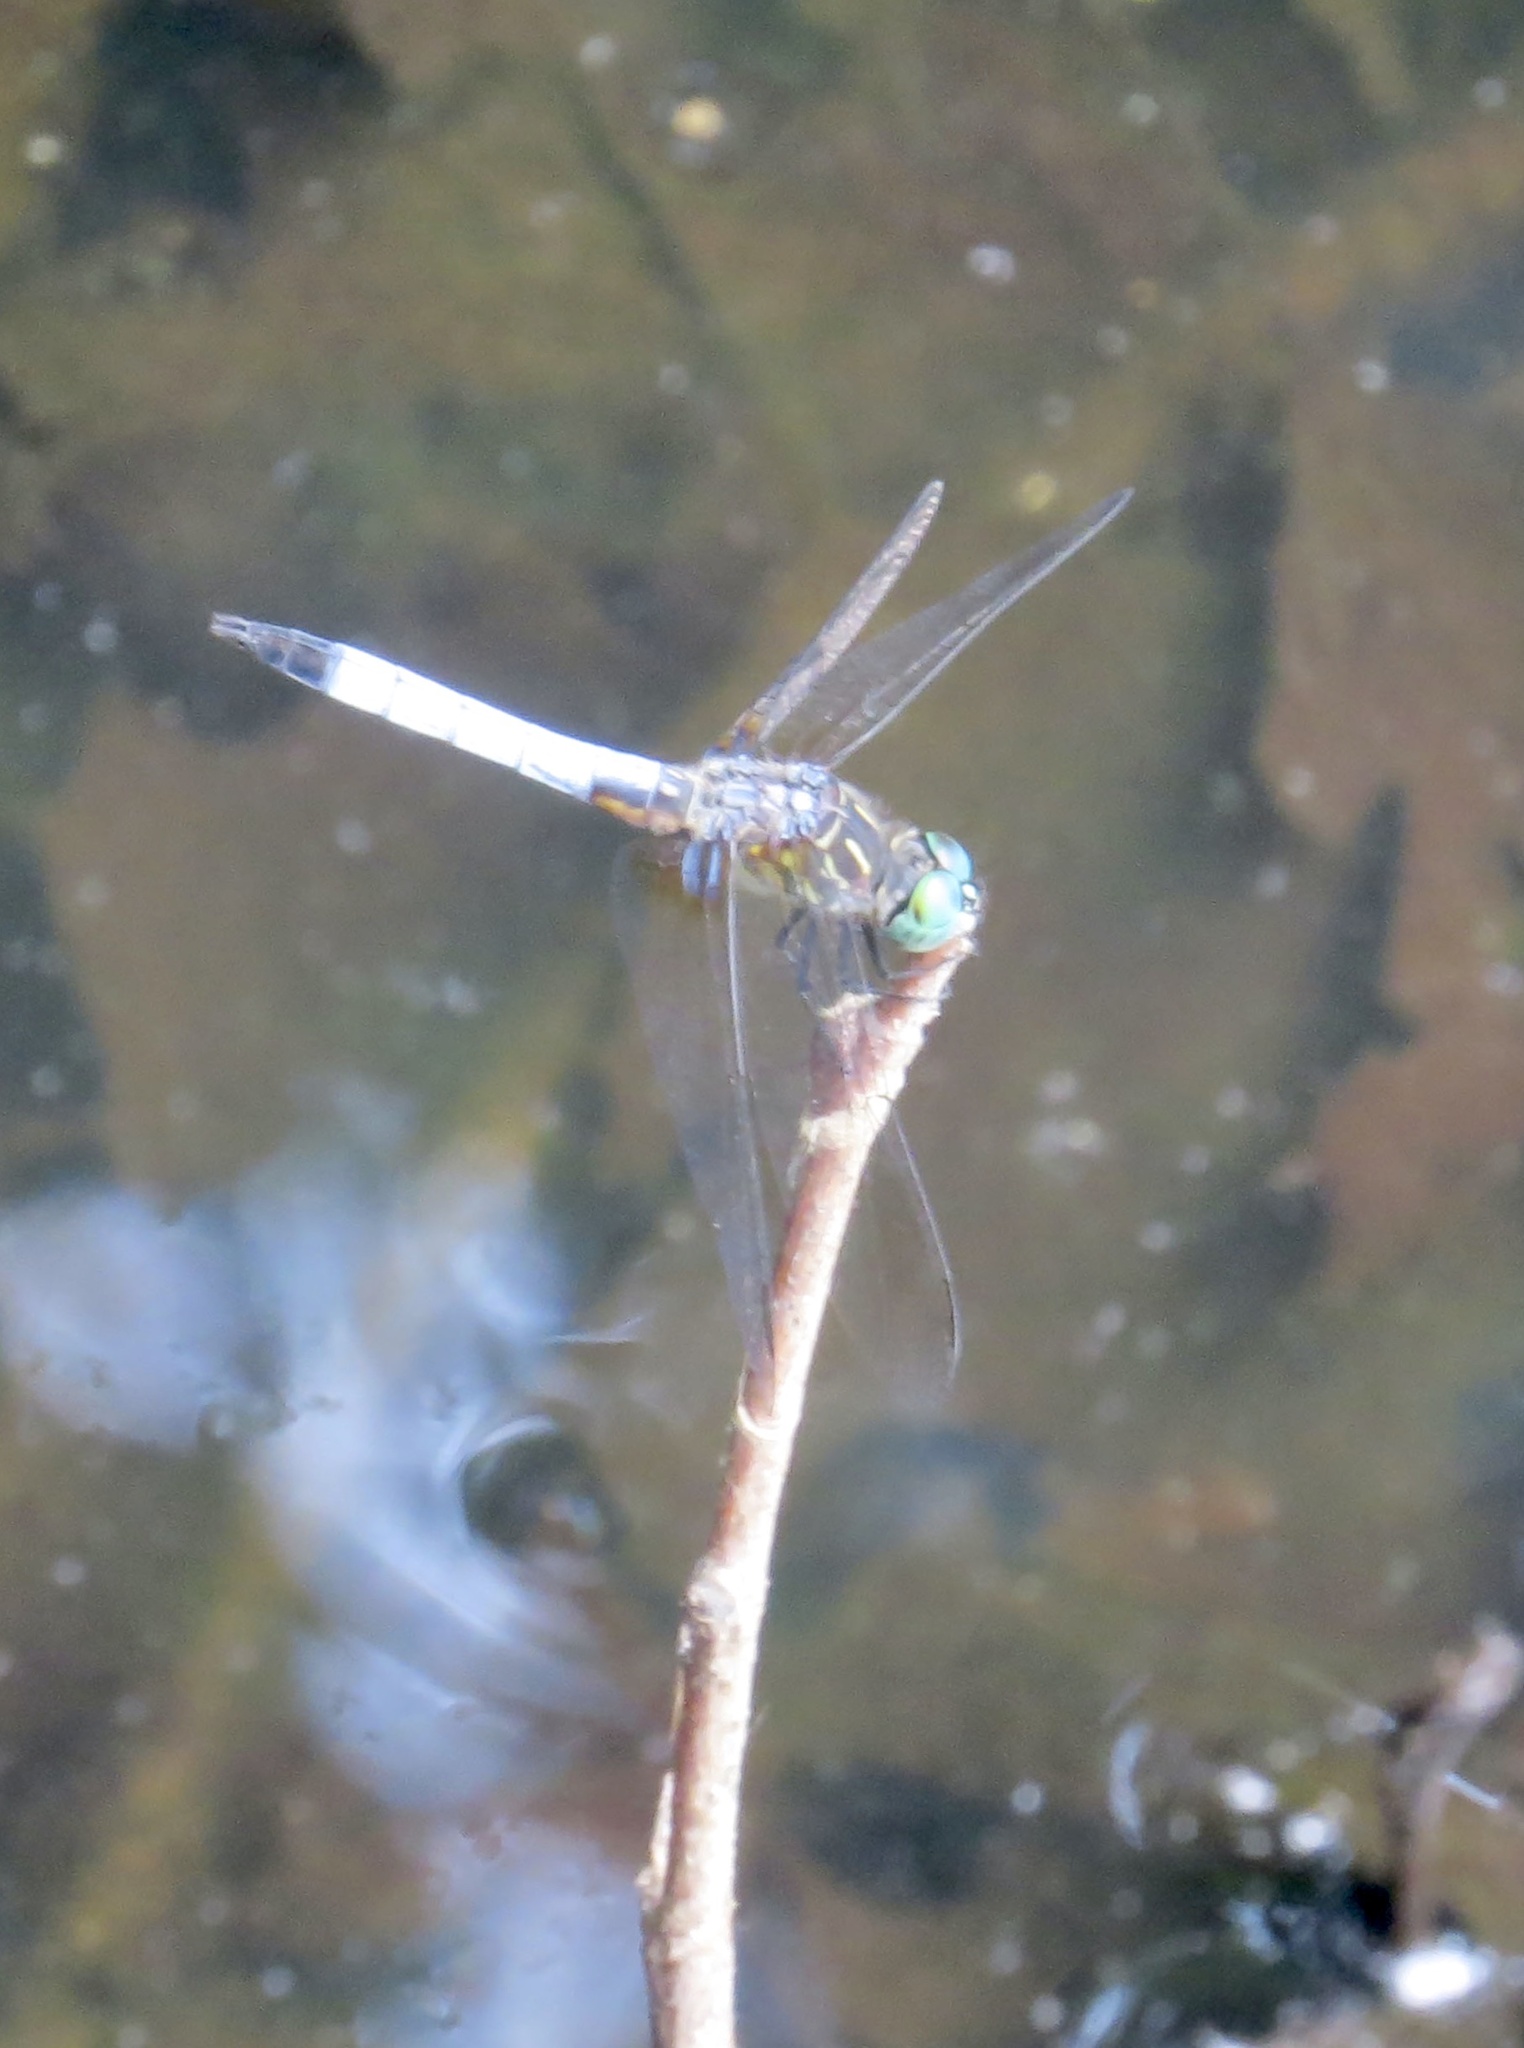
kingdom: Animalia
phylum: Arthropoda
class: Insecta
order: Odonata
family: Libellulidae
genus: Pachydiplax
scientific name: Pachydiplax longipennis
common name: Blue dasher
